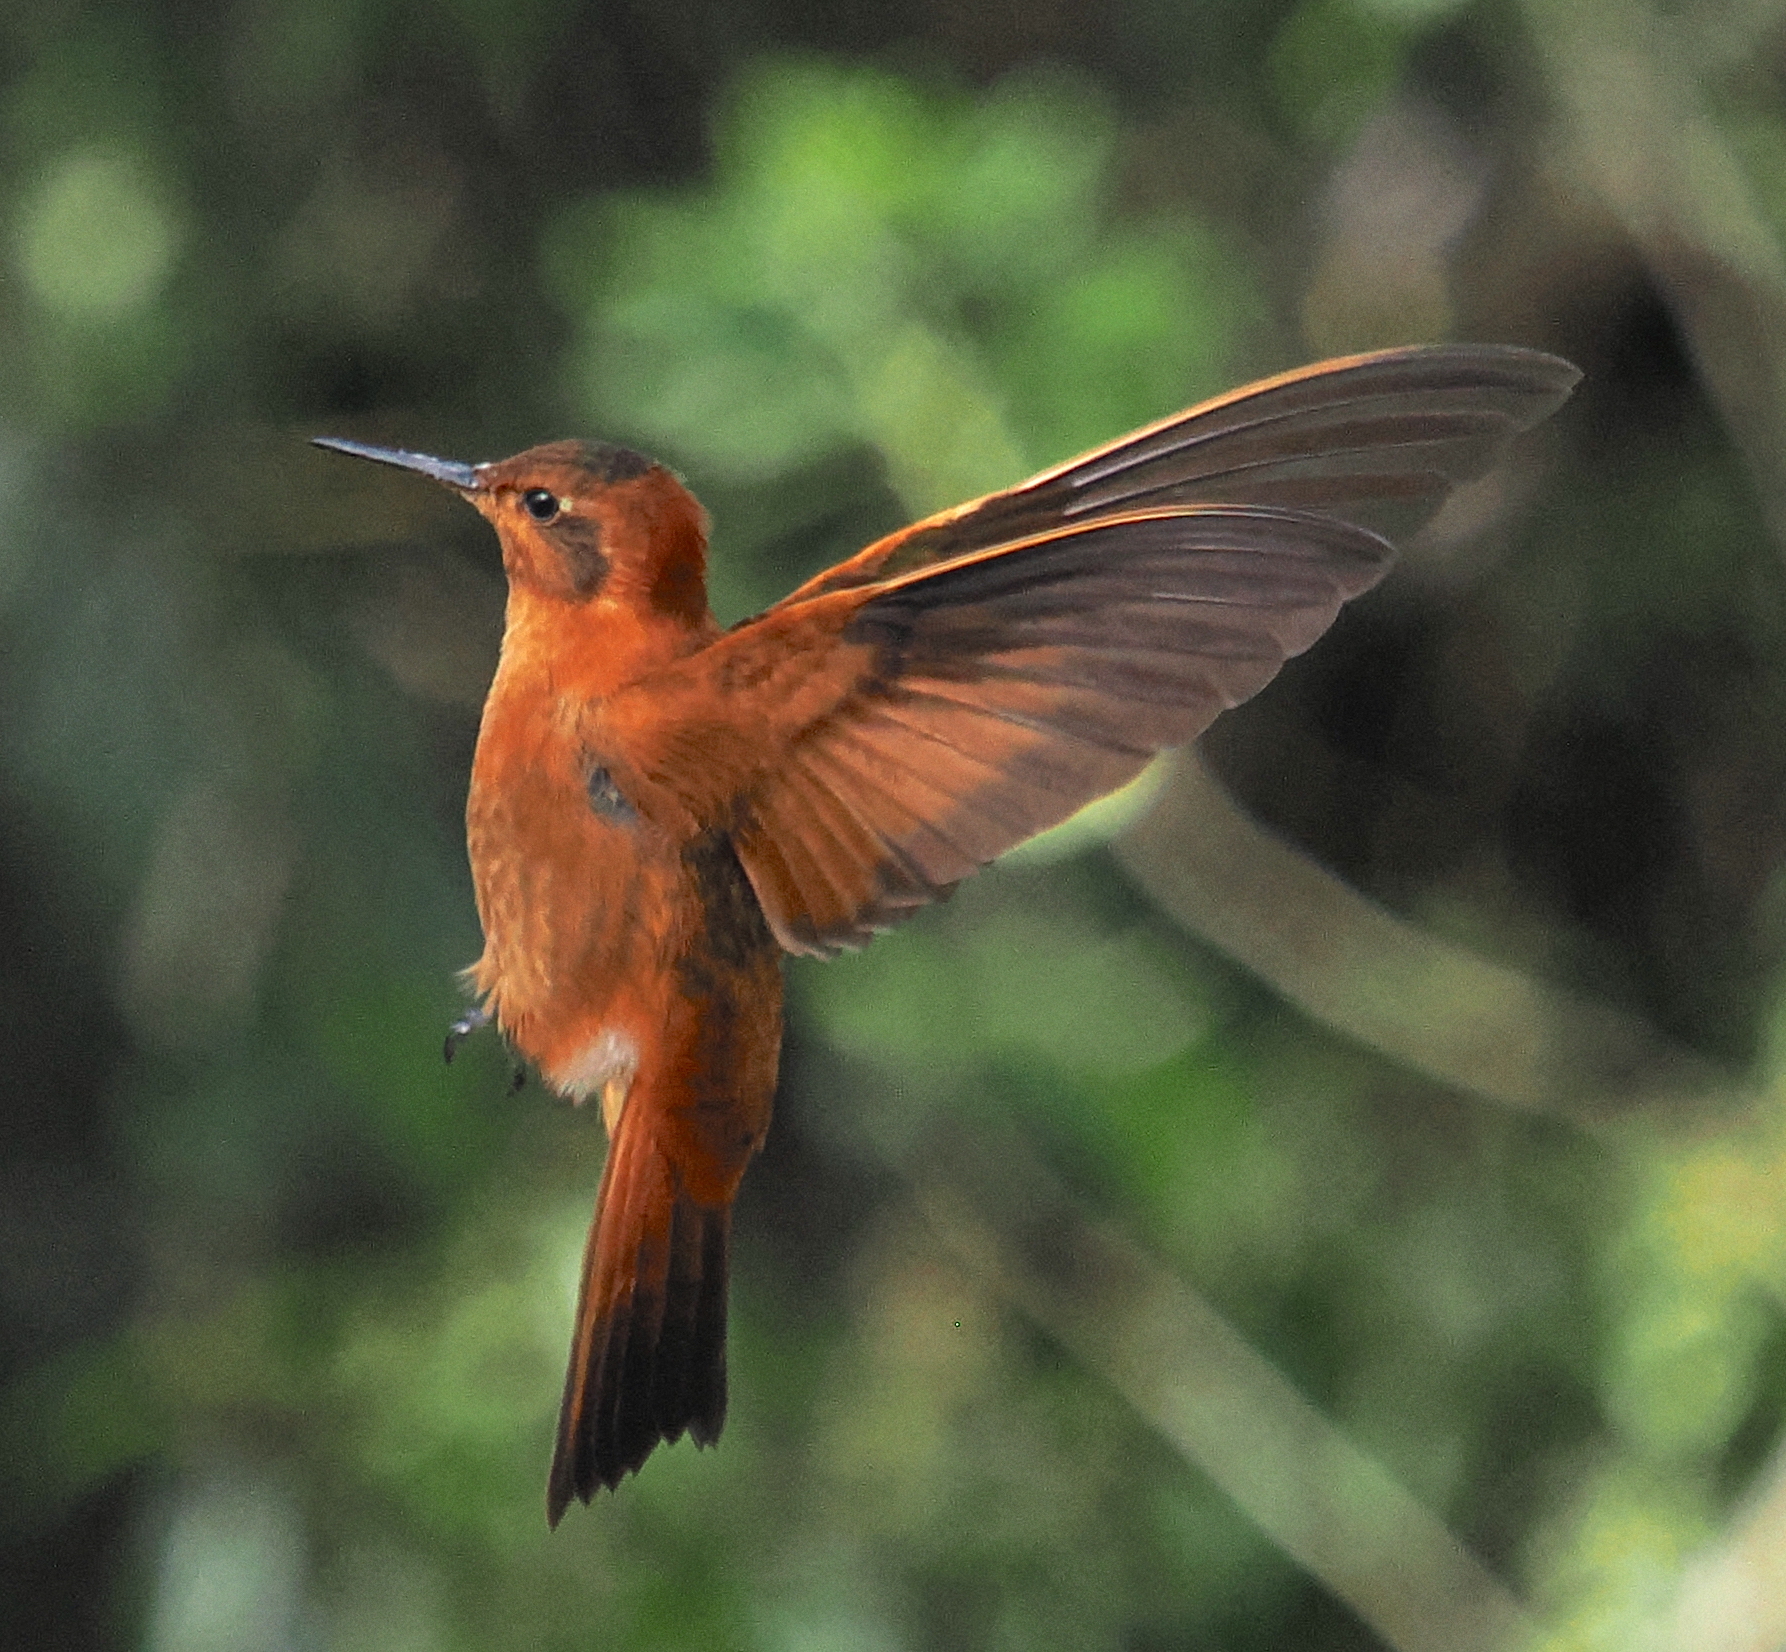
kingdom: Animalia
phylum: Chordata
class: Aves
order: Apodiformes
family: Trochilidae
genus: Aglaeactis
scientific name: Aglaeactis cupripennis
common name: Shining sunbeam
